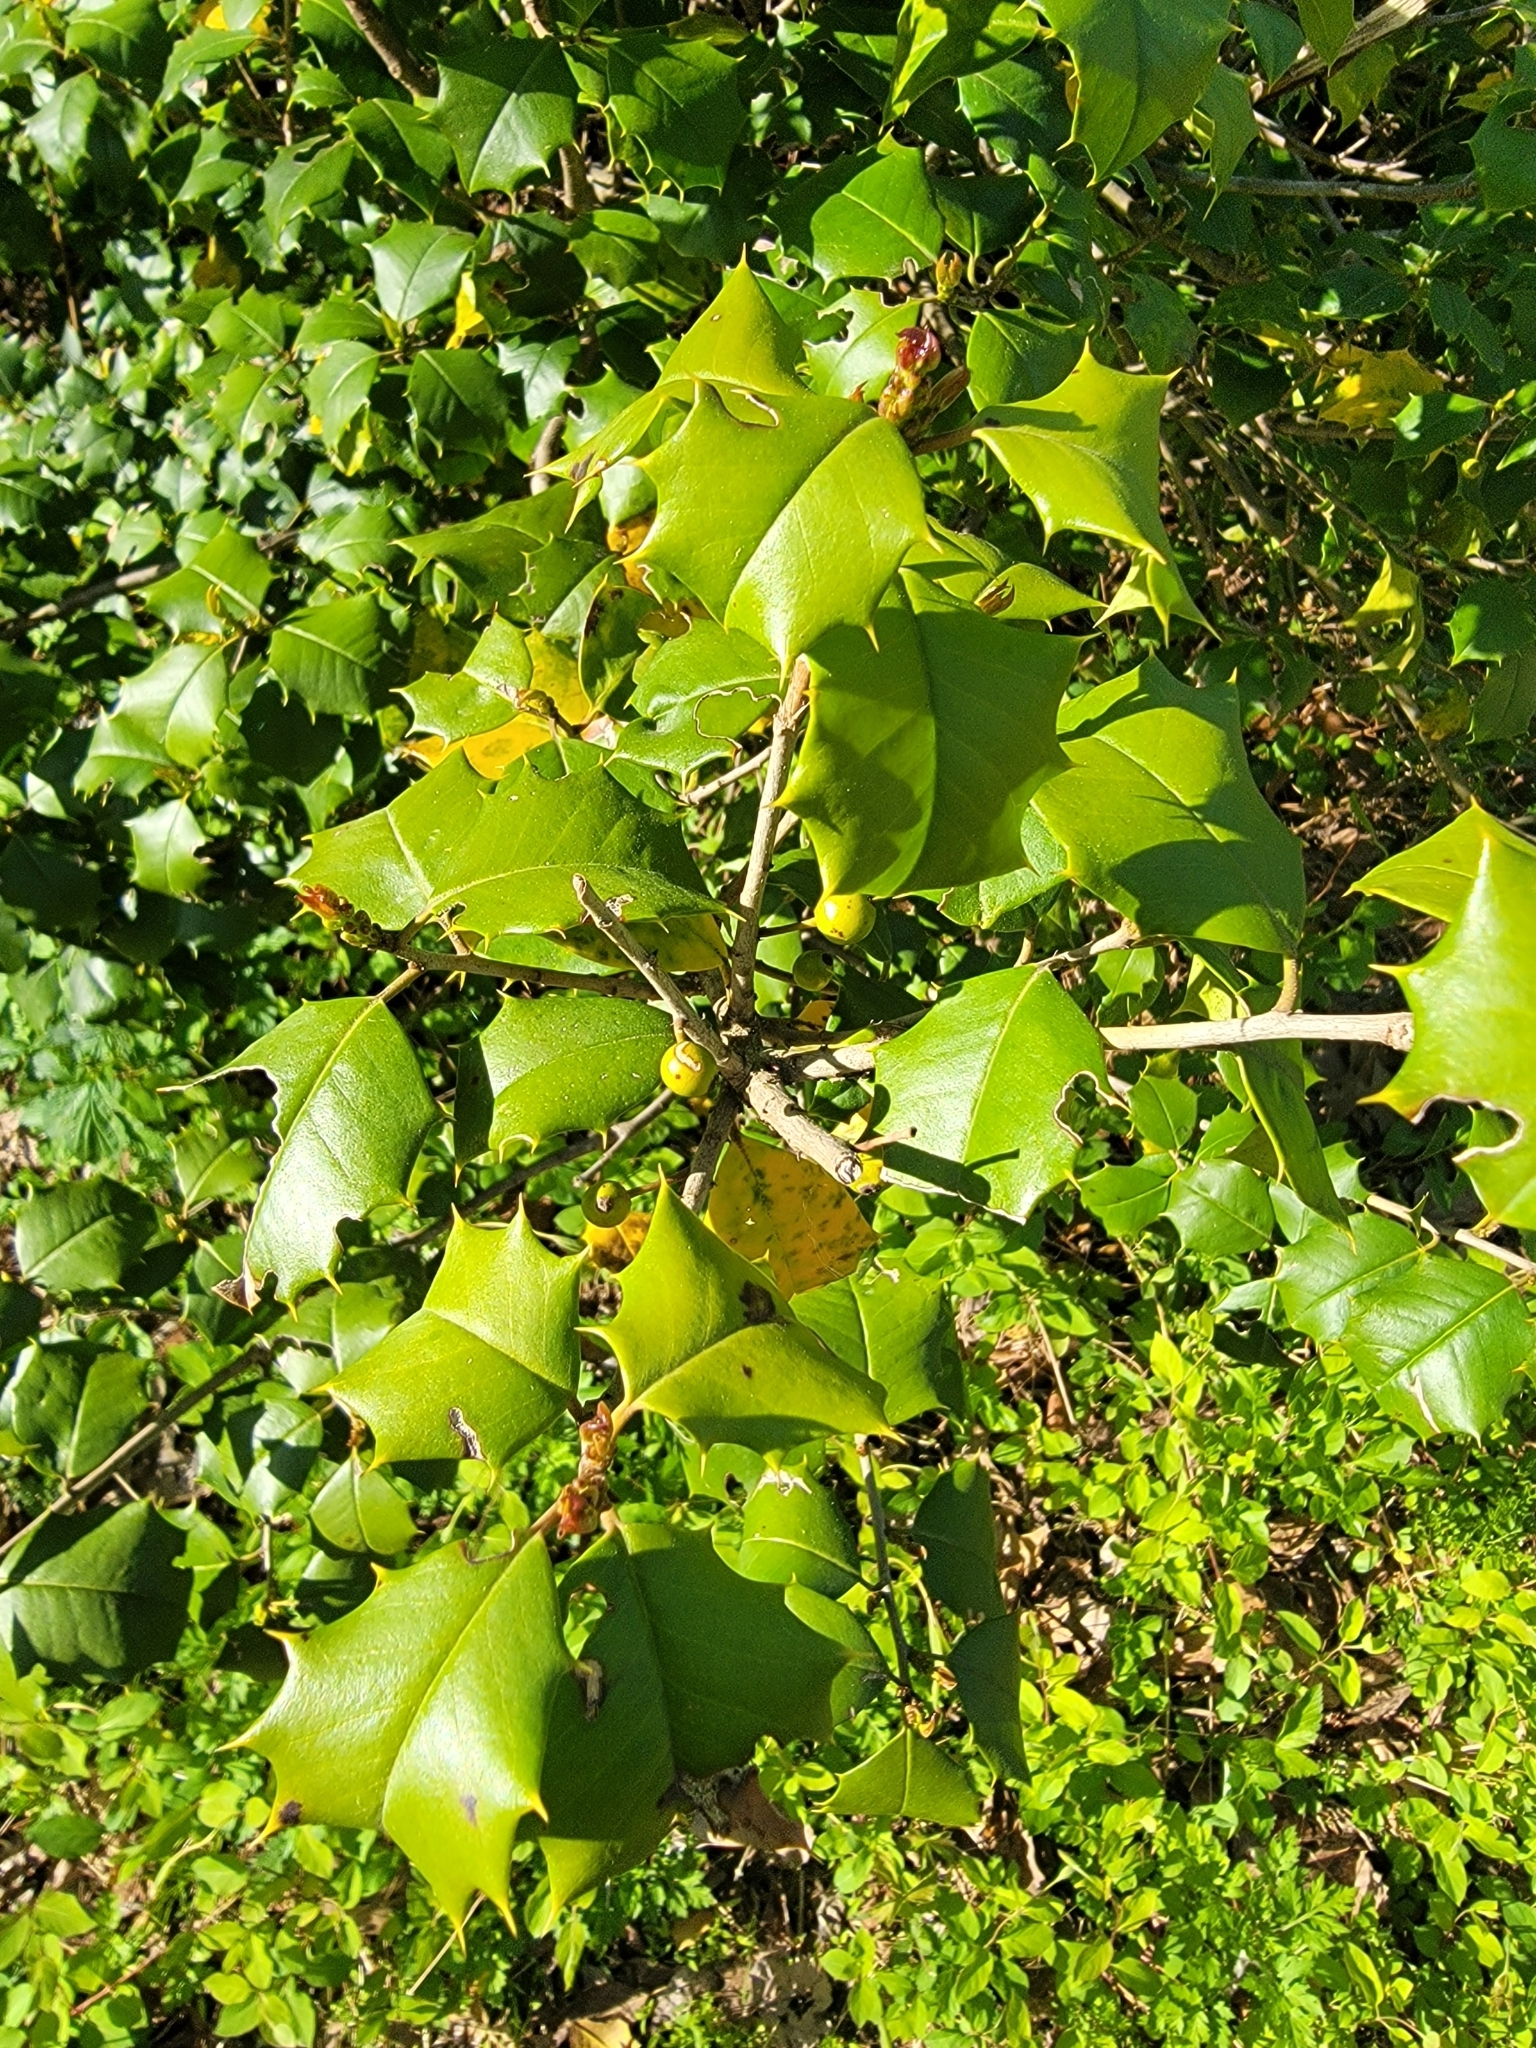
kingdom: Plantae
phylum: Tracheophyta
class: Magnoliopsida
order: Aquifoliales
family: Aquifoliaceae
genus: Ilex
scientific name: Ilex opaca
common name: American holly
